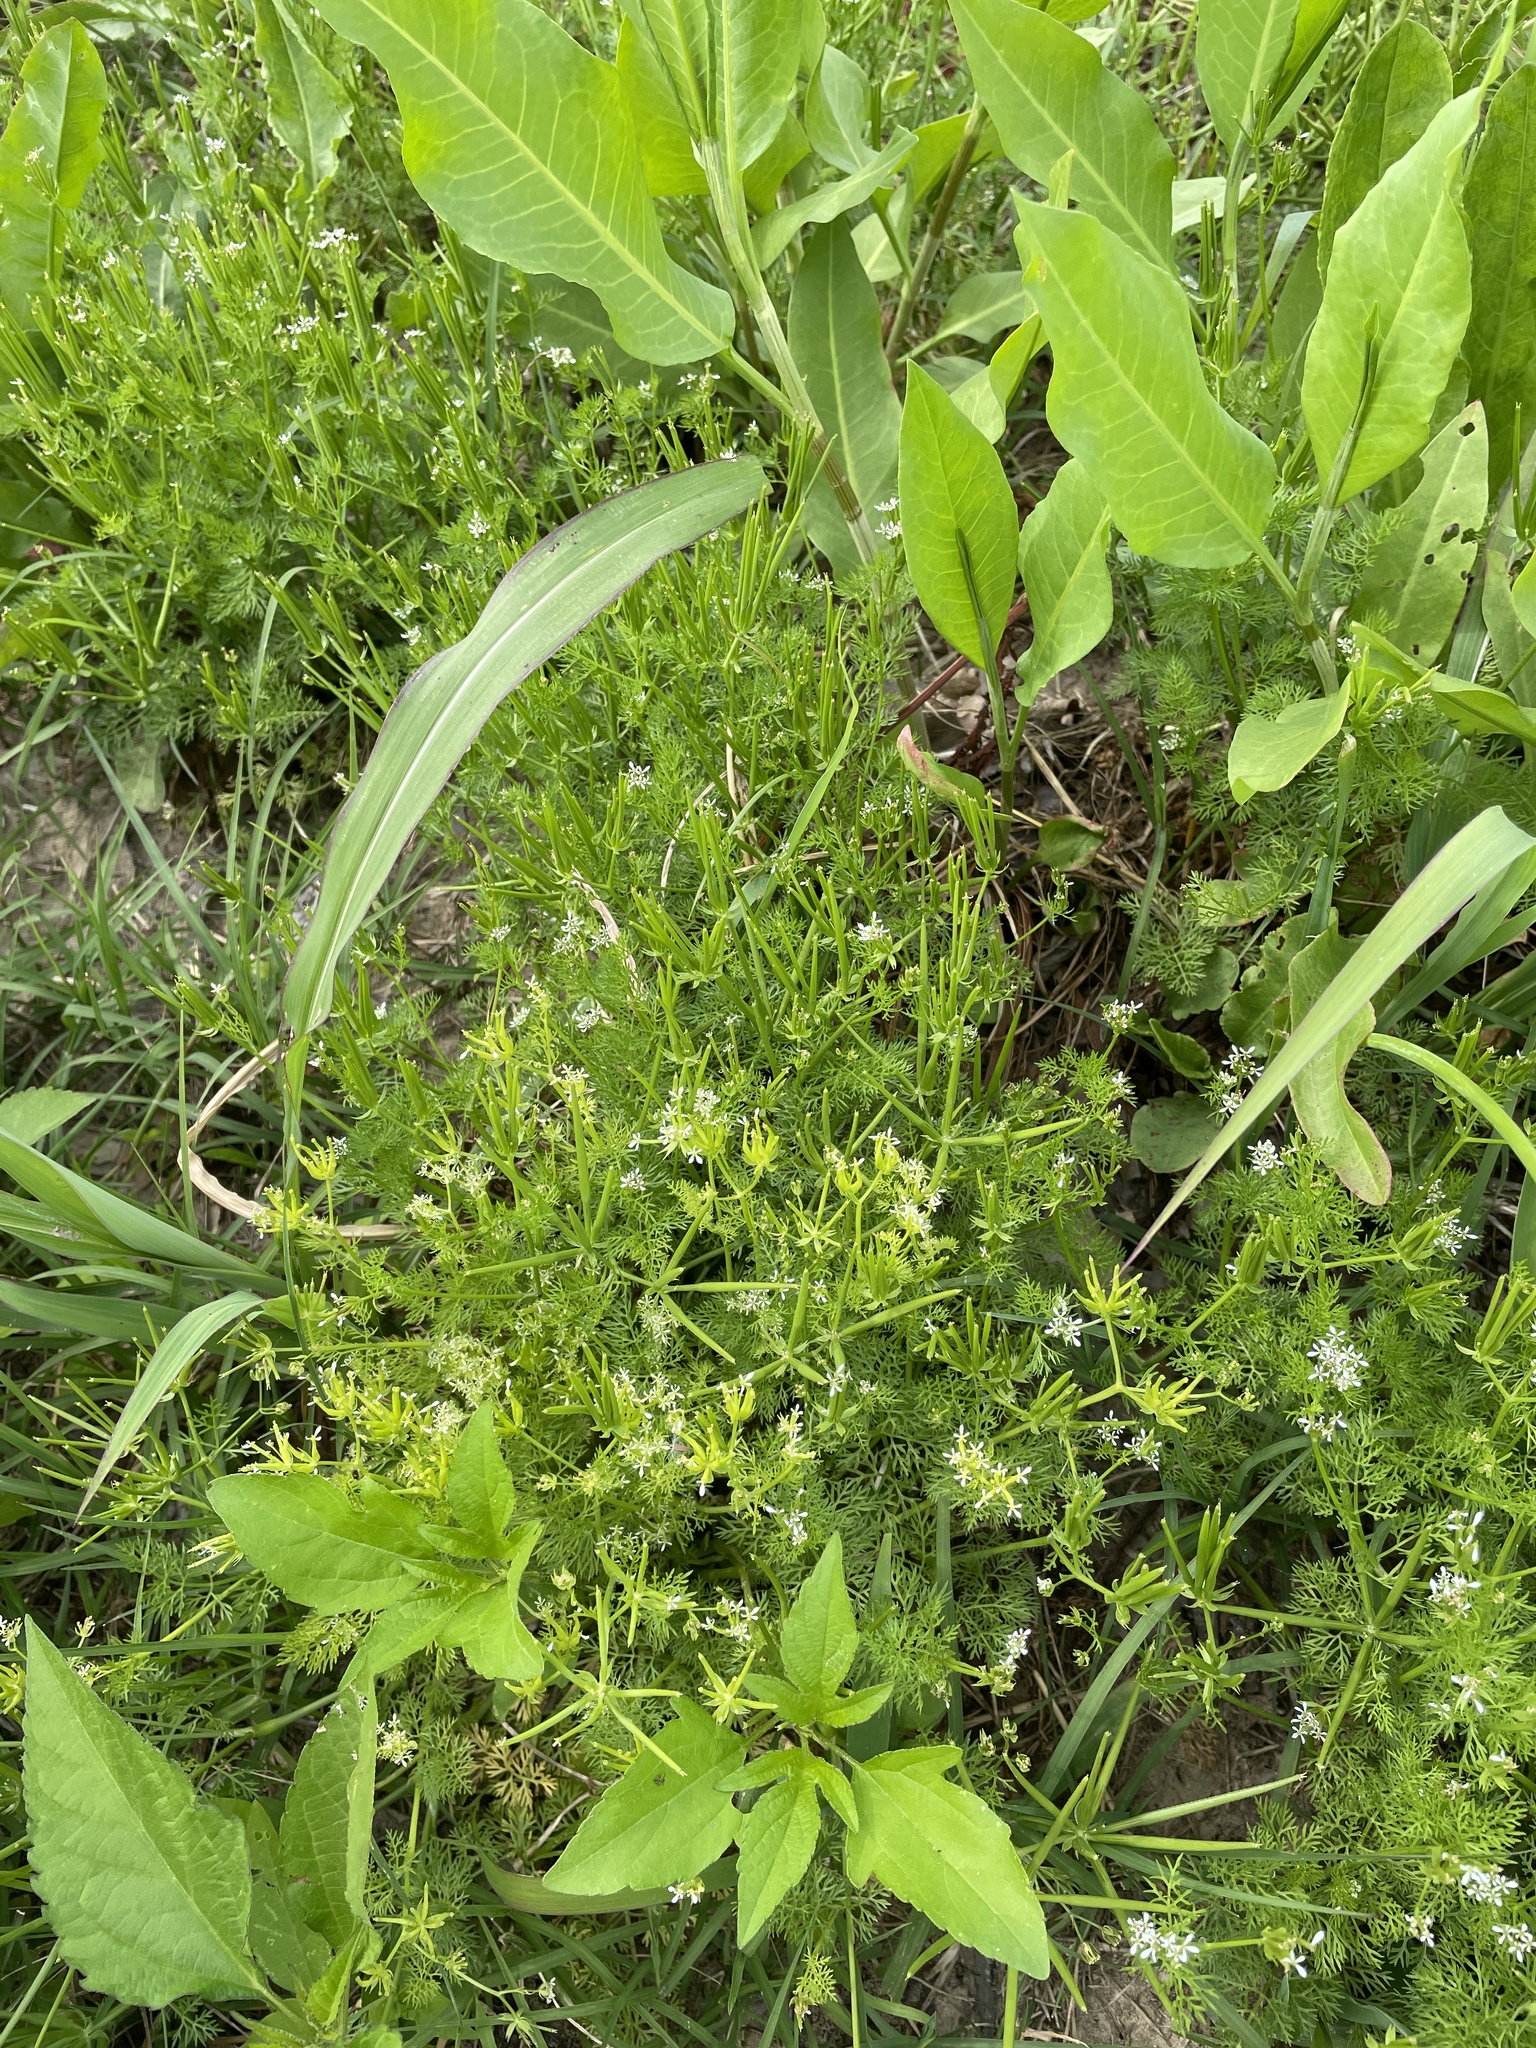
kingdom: Plantae
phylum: Tracheophyta
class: Magnoliopsida
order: Apiales
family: Apiaceae
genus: Scandix
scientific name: Scandix pecten-veneris
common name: Shepherd's-needle
